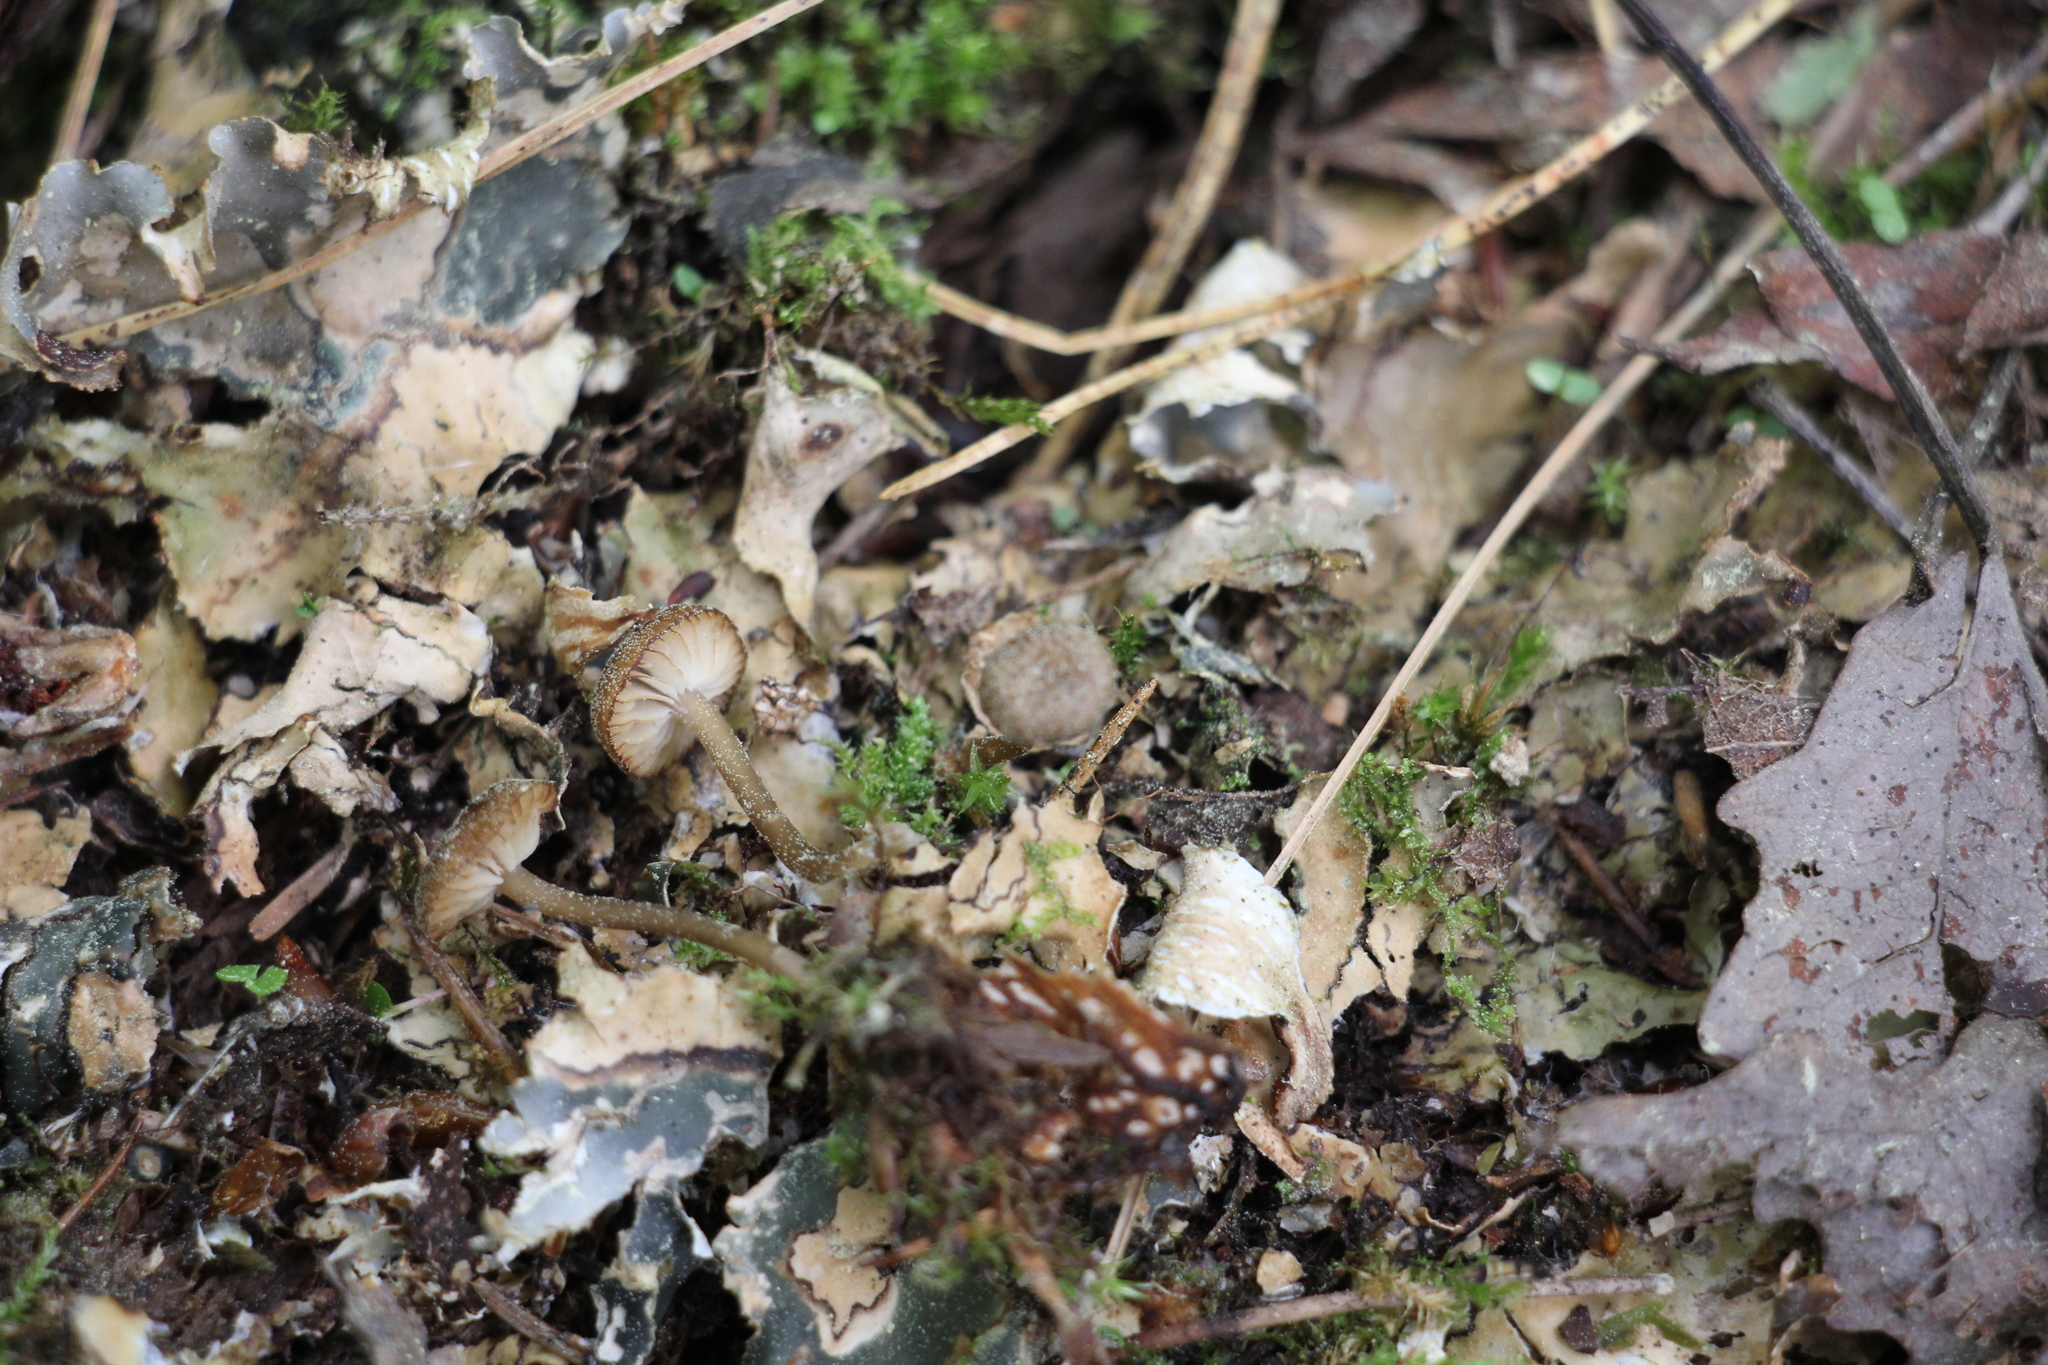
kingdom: Fungi
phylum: Basidiomycota
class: Agaricomycetes
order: Agaricales
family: Hygrophoraceae
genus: Arrhenia
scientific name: Arrhenia peltigerina
